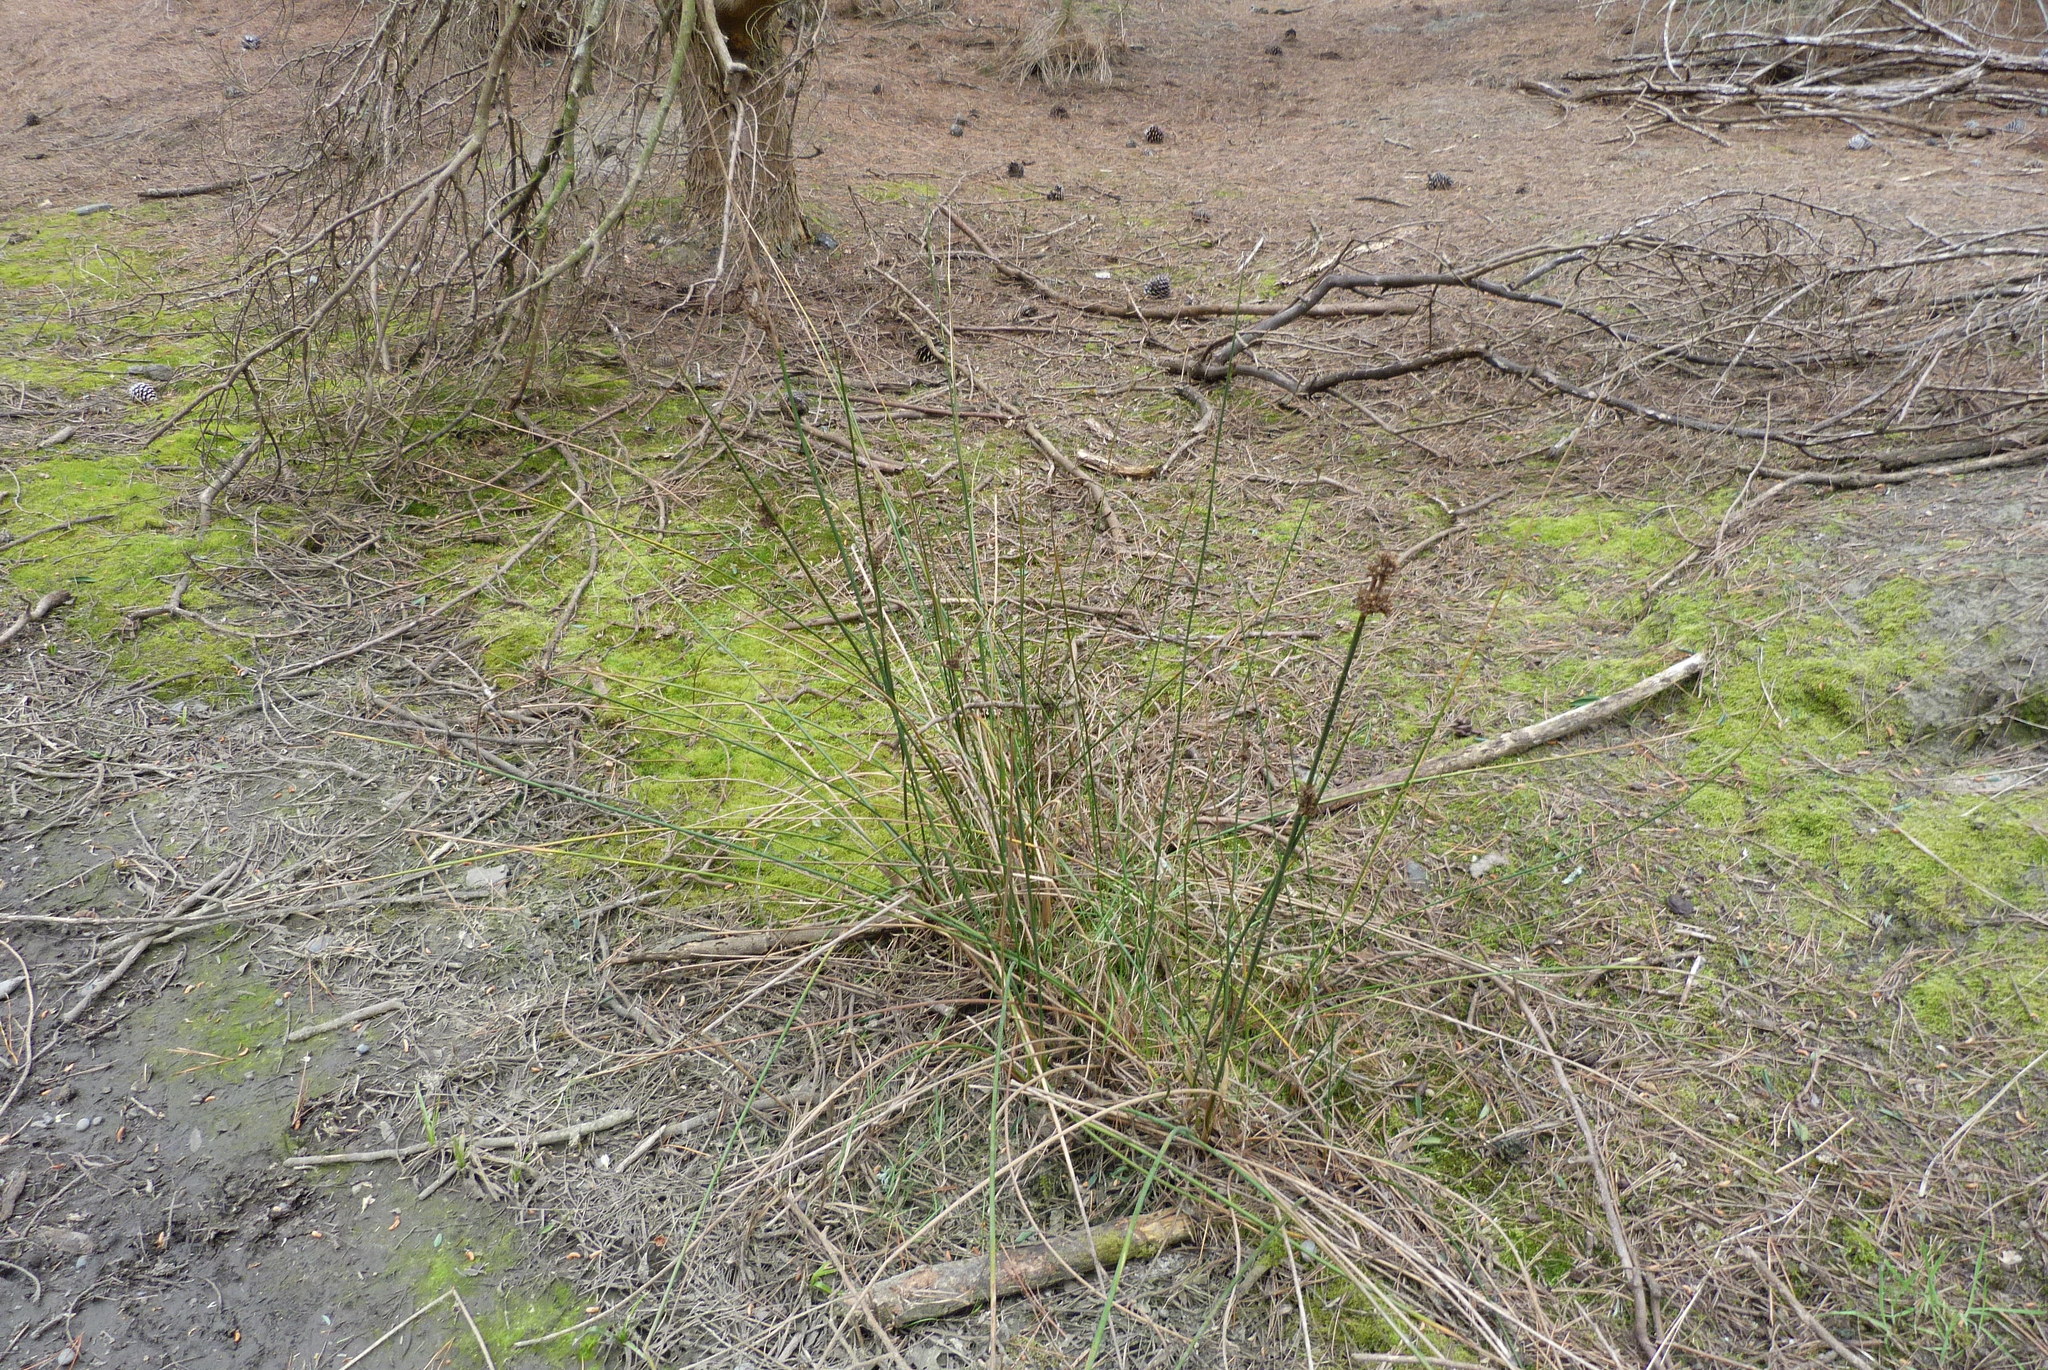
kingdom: Plantae
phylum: Tracheophyta
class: Liliopsida
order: Poales
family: Juncaceae
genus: Juncus
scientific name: Juncus kraussii
